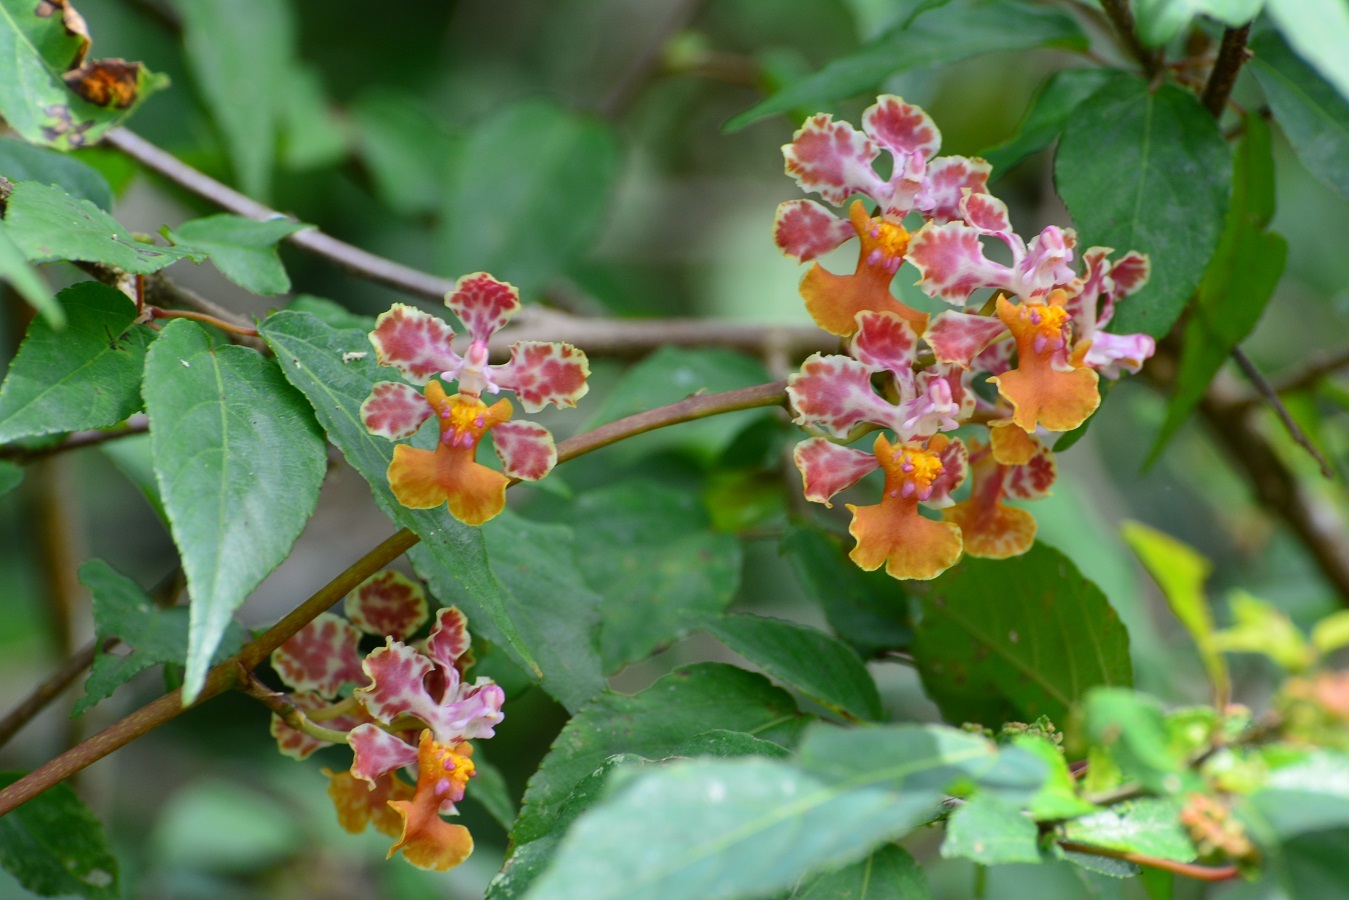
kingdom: Plantae
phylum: Tracheophyta
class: Liliopsida
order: Asparagales
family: Orchidaceae
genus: Trichocentrum
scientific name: Trichocentrum andreanum
